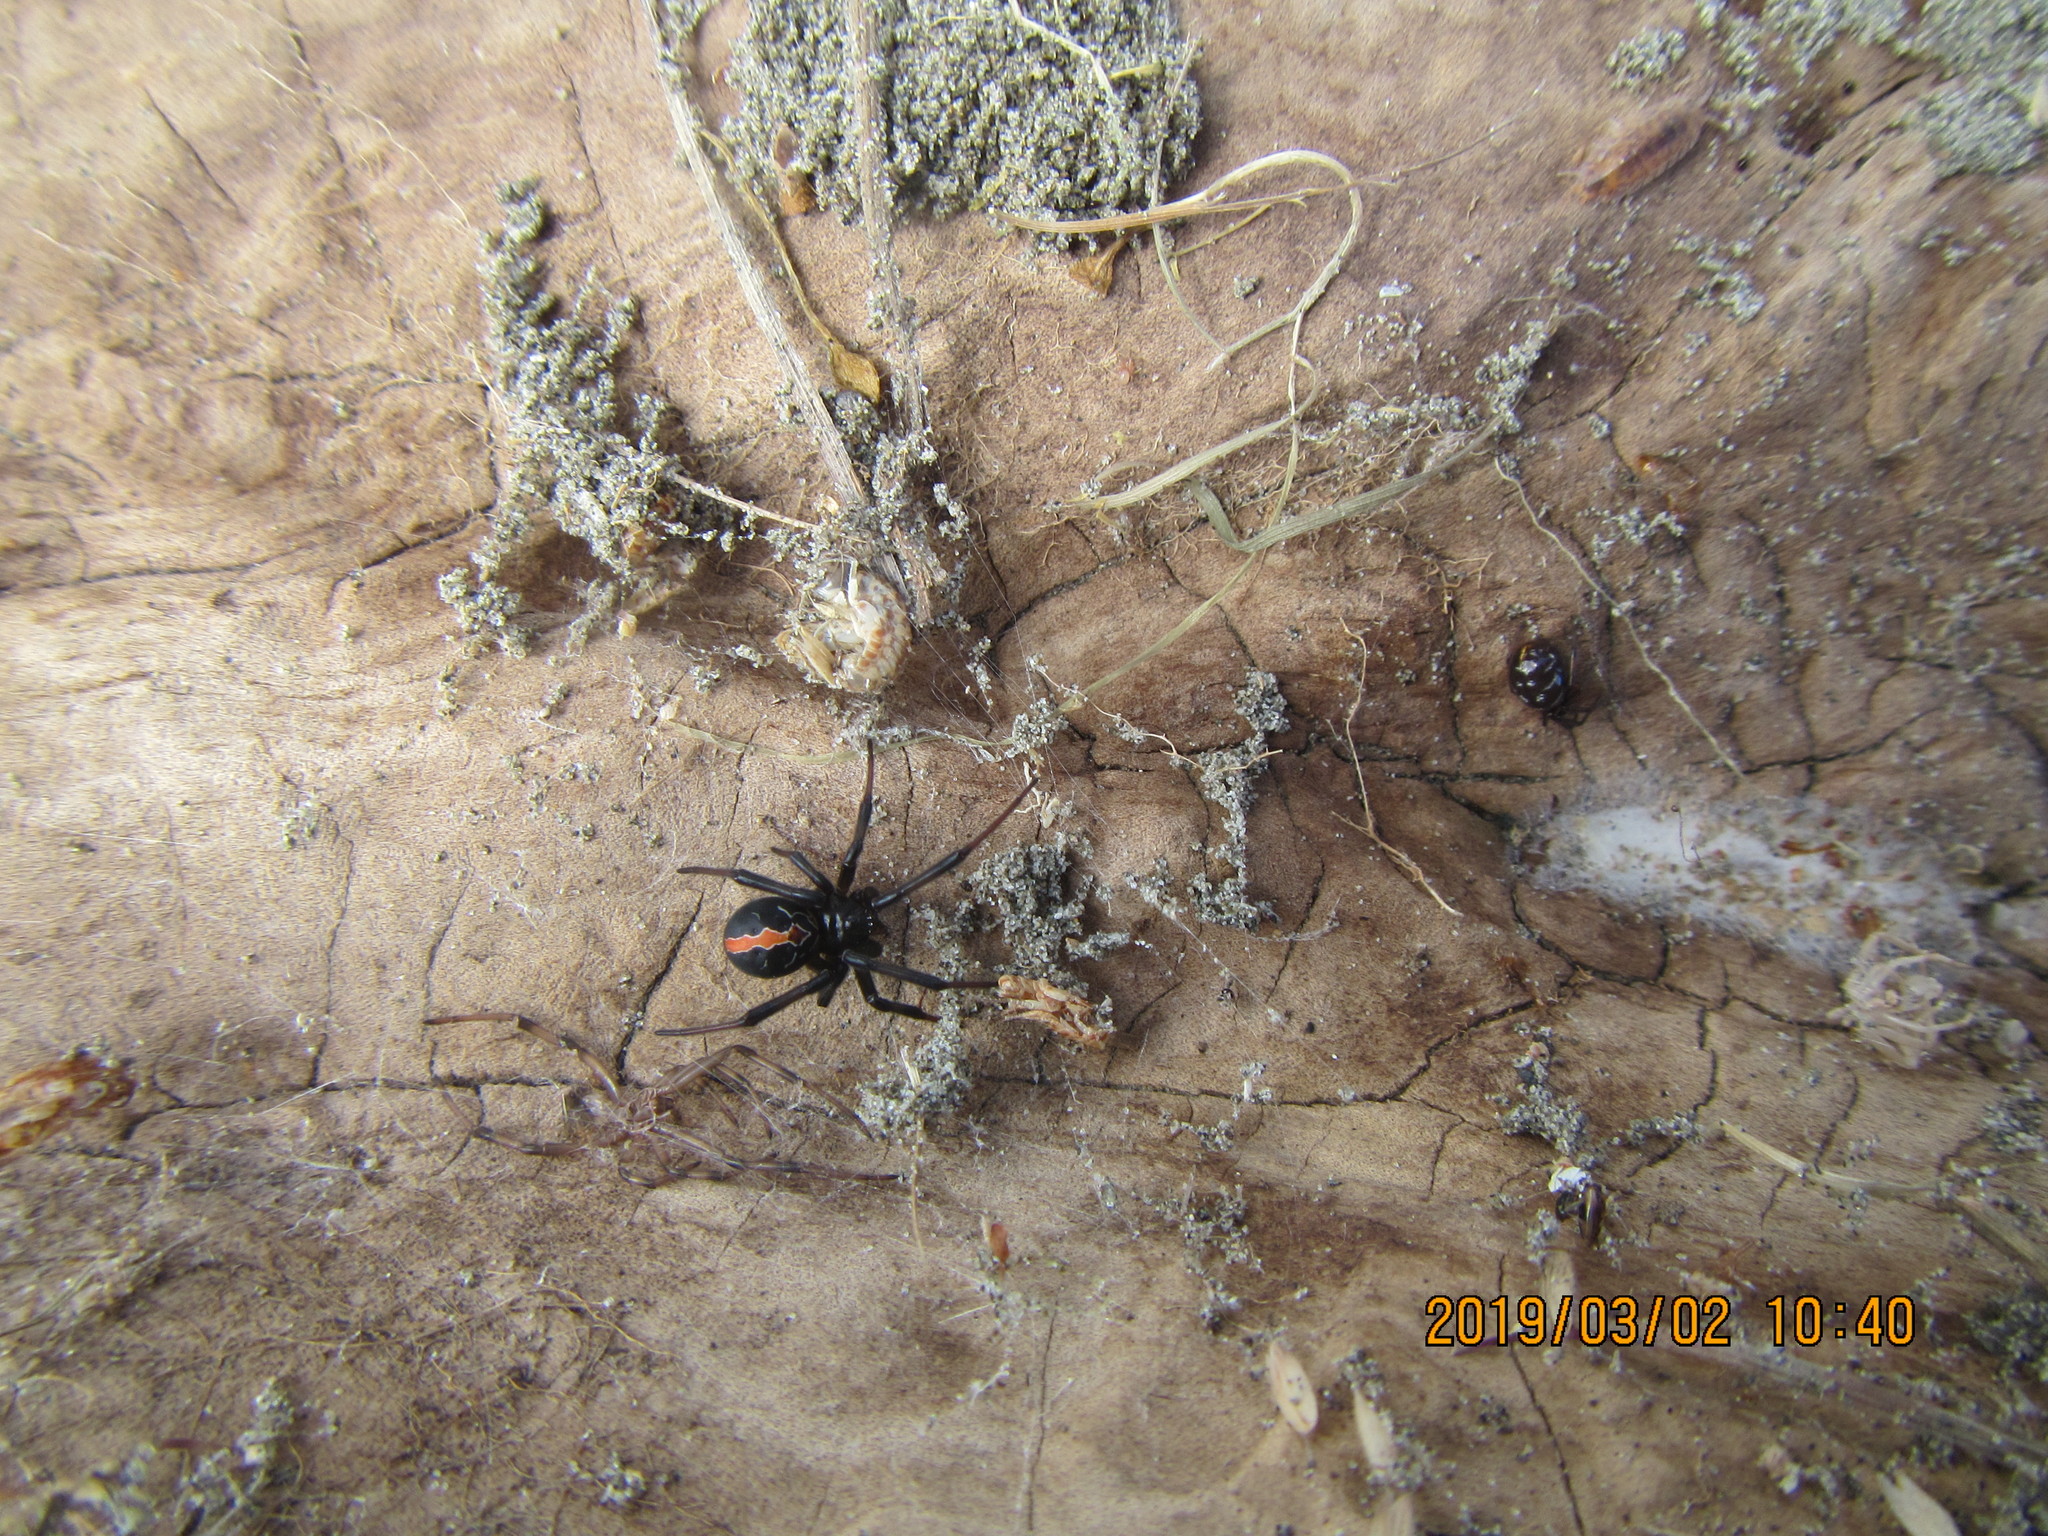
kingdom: Animalia
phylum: Arthropoda
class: Arachnida
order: Araneae
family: Theridiidae
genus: Latrodectus
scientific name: Latrodectus katipo
